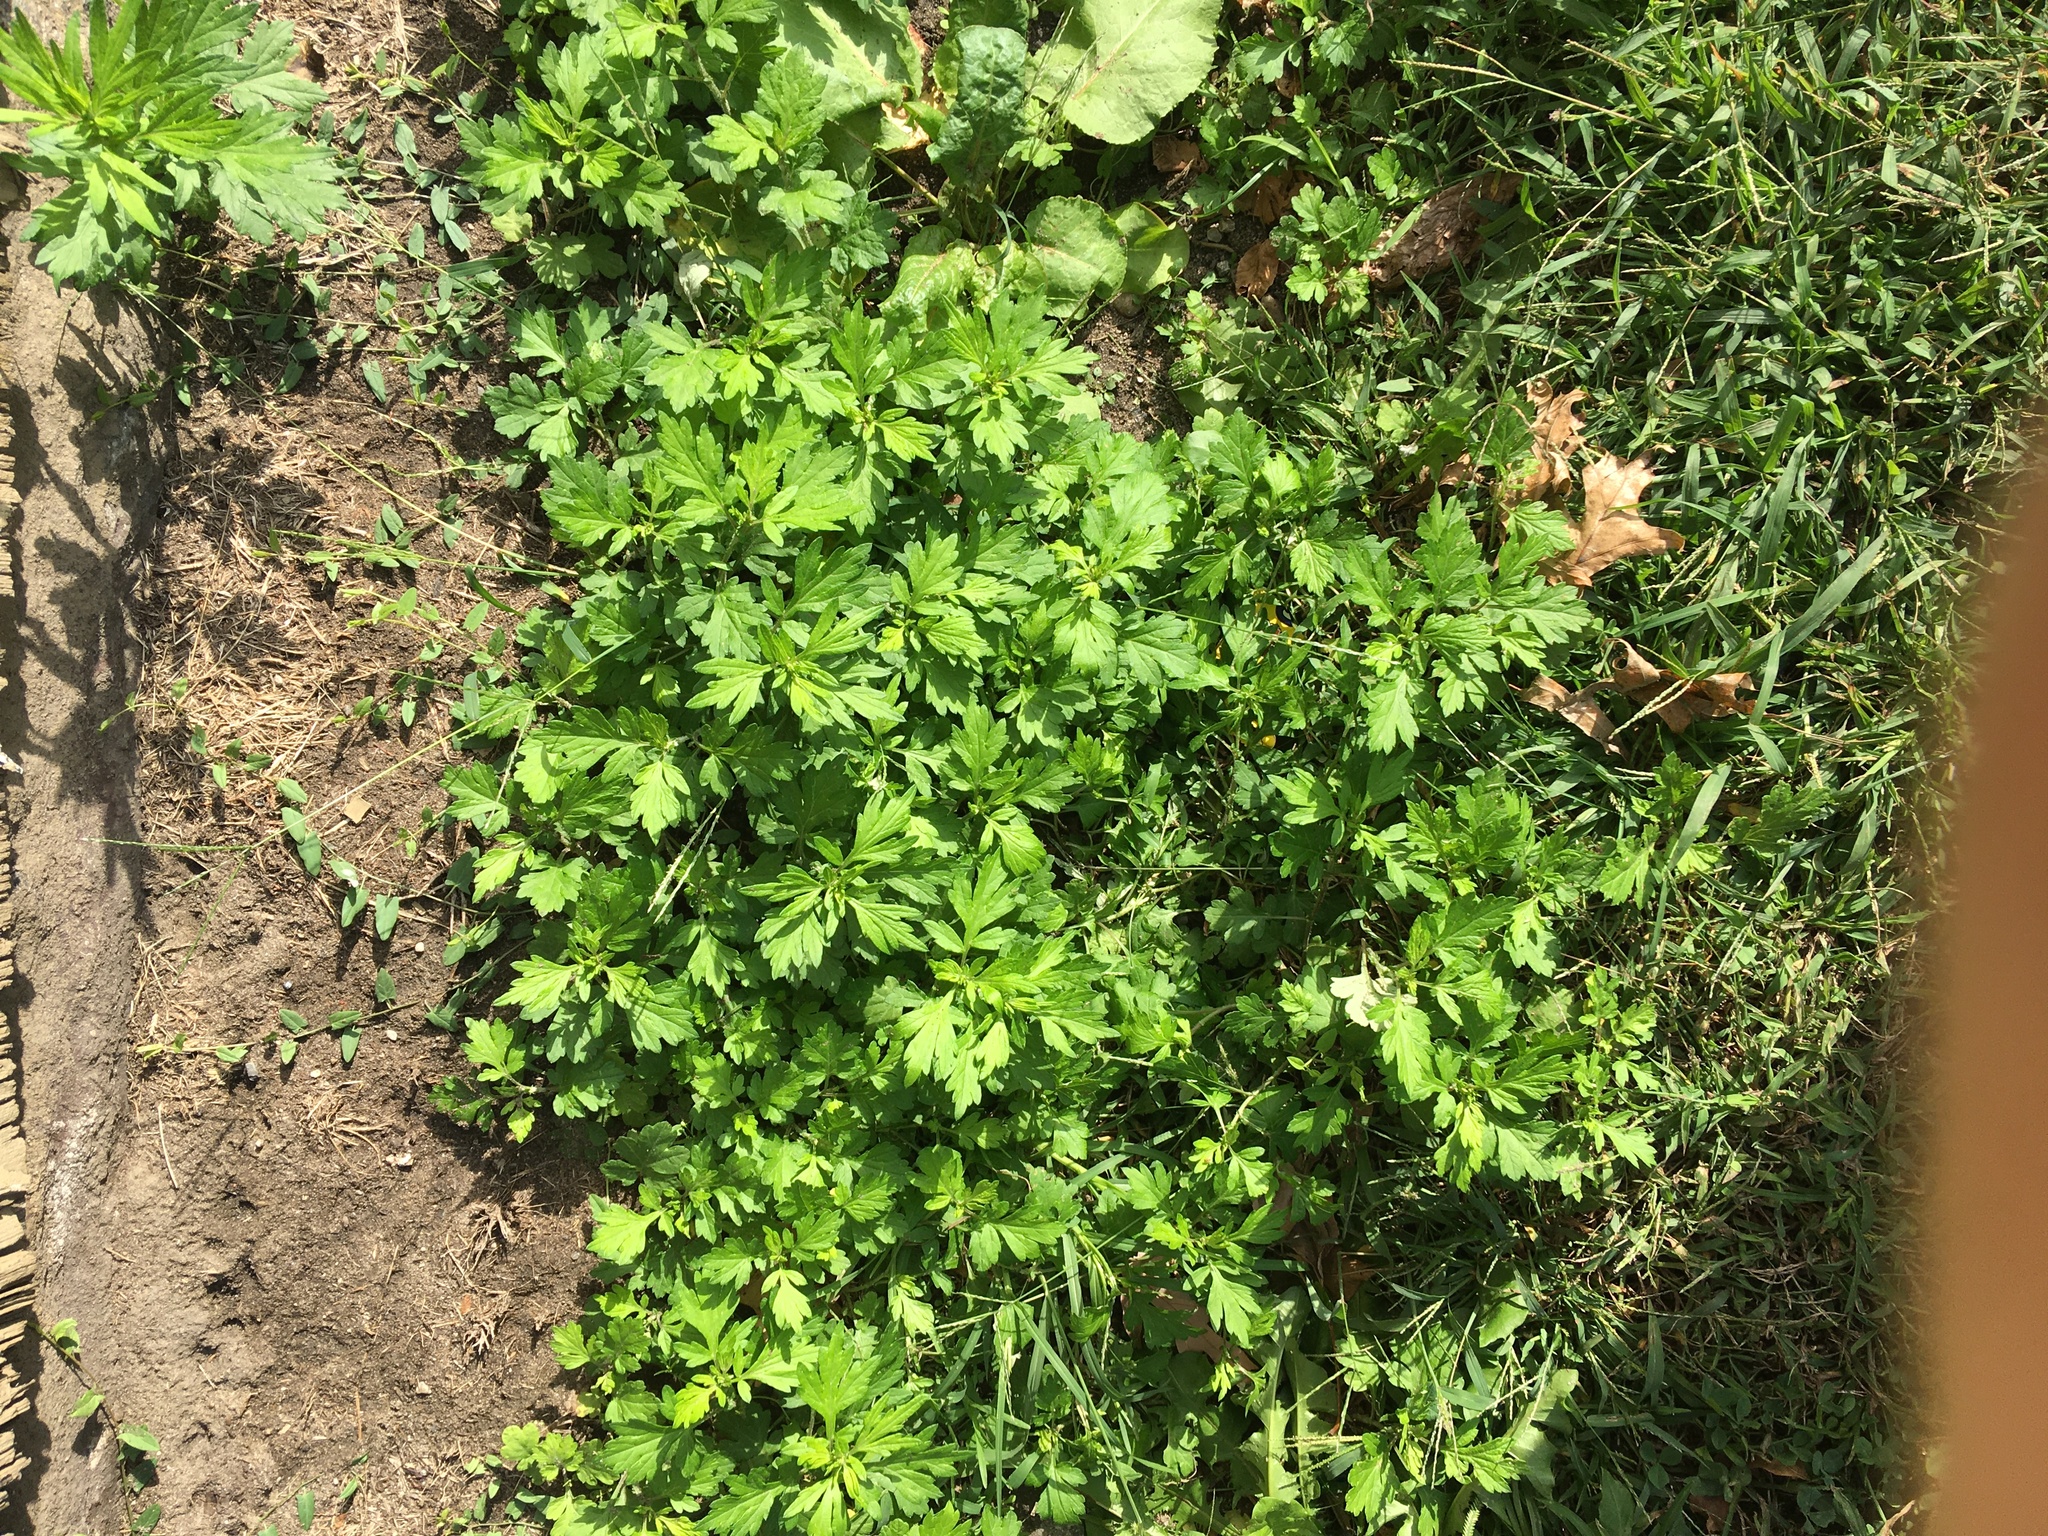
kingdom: Plantae
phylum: Tracheophyta
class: Magnoliopsida
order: Asterales
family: Asteraceae
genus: Artemisia
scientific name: Artemisia vulgaris
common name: Mugwort
